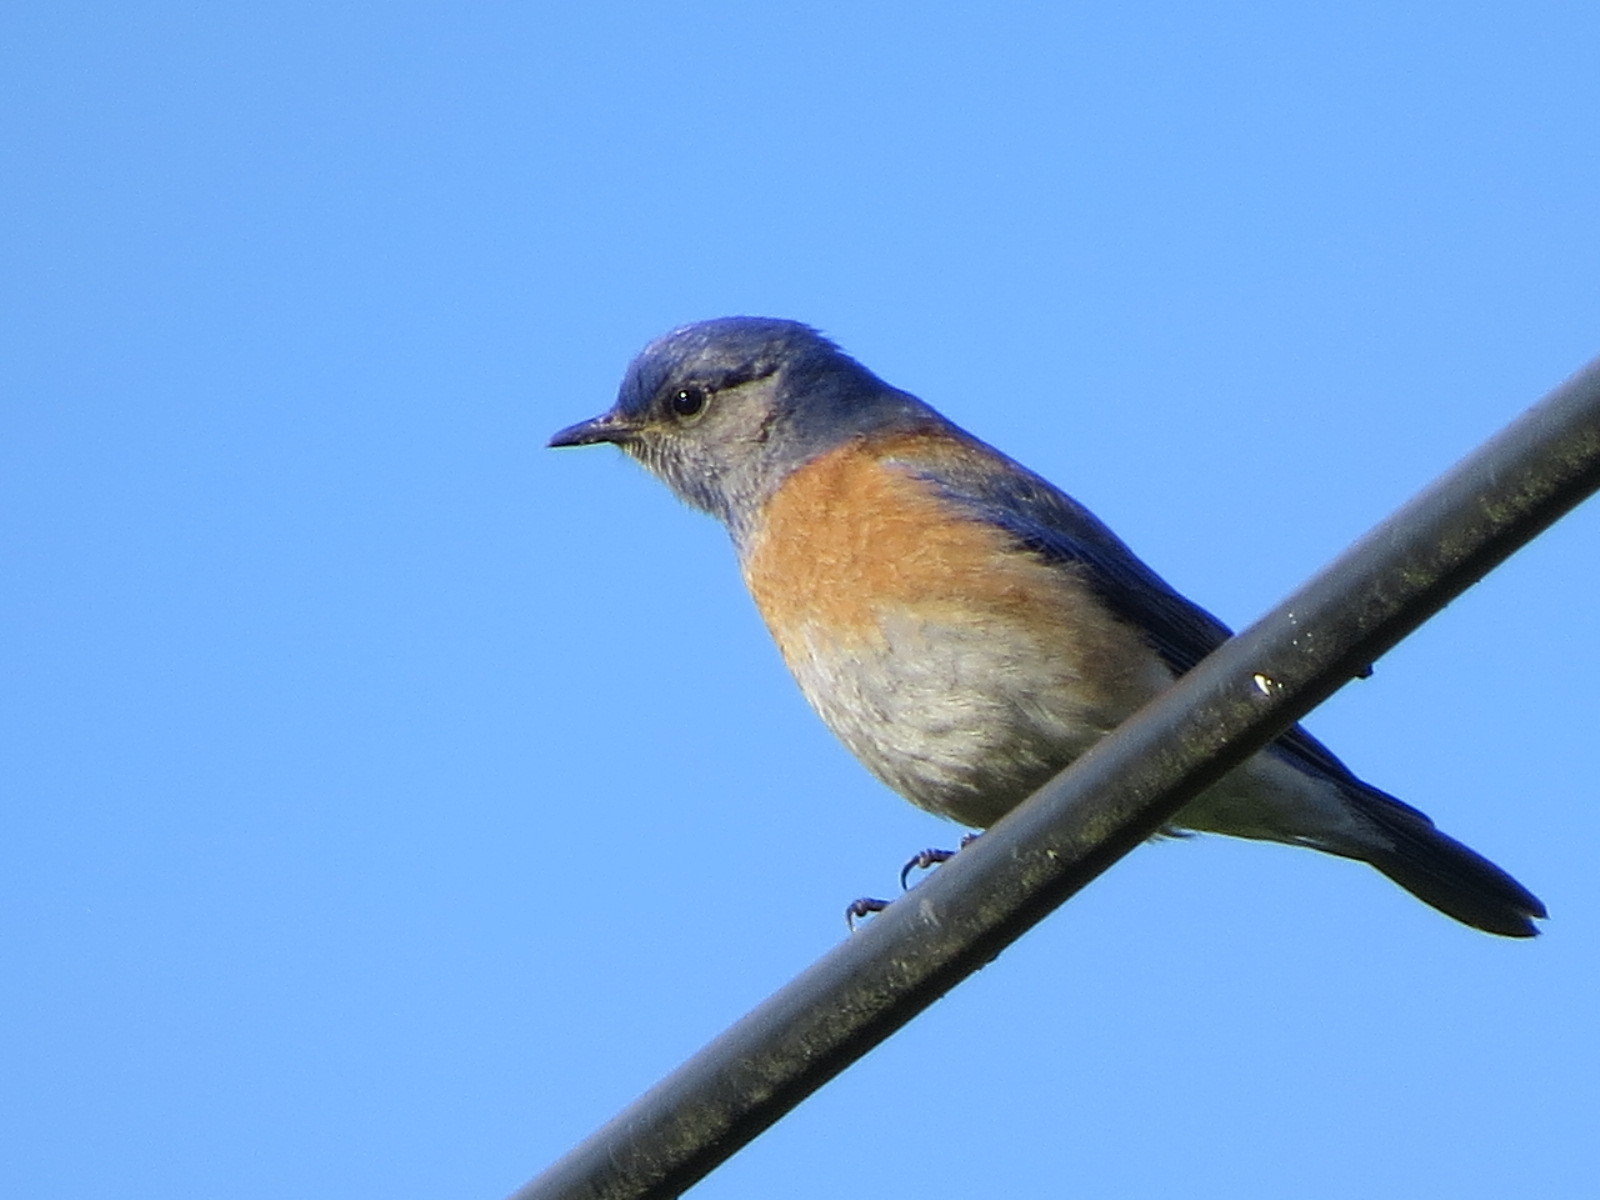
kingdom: Animalia
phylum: Chordata
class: Aves
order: Passeriformes
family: Turdidae
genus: Sialia
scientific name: Sialia mexicana
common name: Western bluebird
